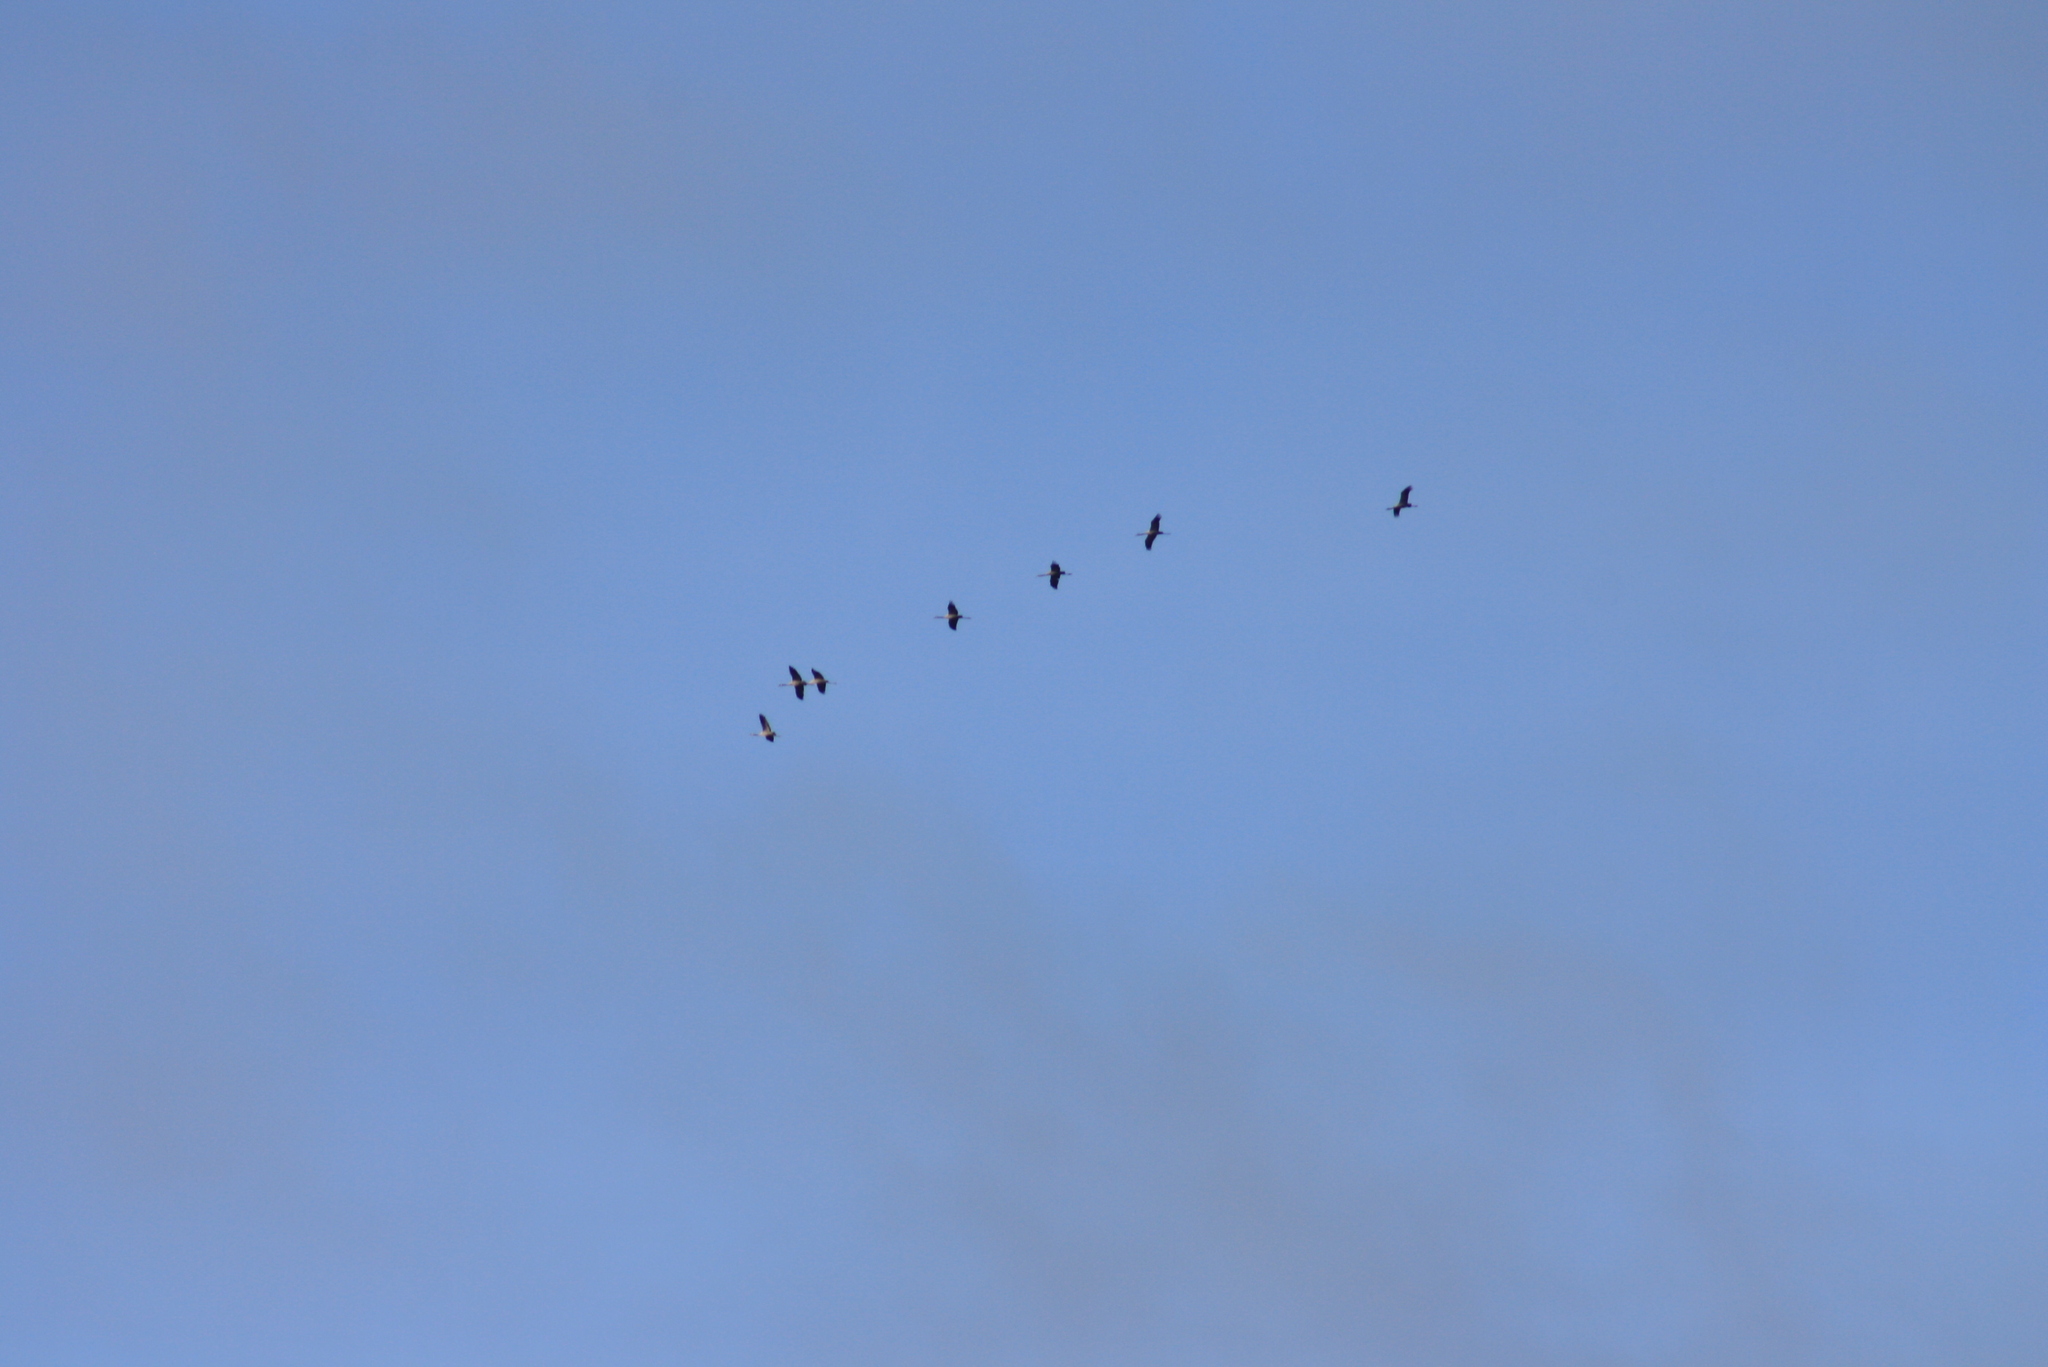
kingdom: Animalia
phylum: Chordata
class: Aves
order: Gruiformes
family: Gruidae
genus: Grus
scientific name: Grus grus
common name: Common crane
